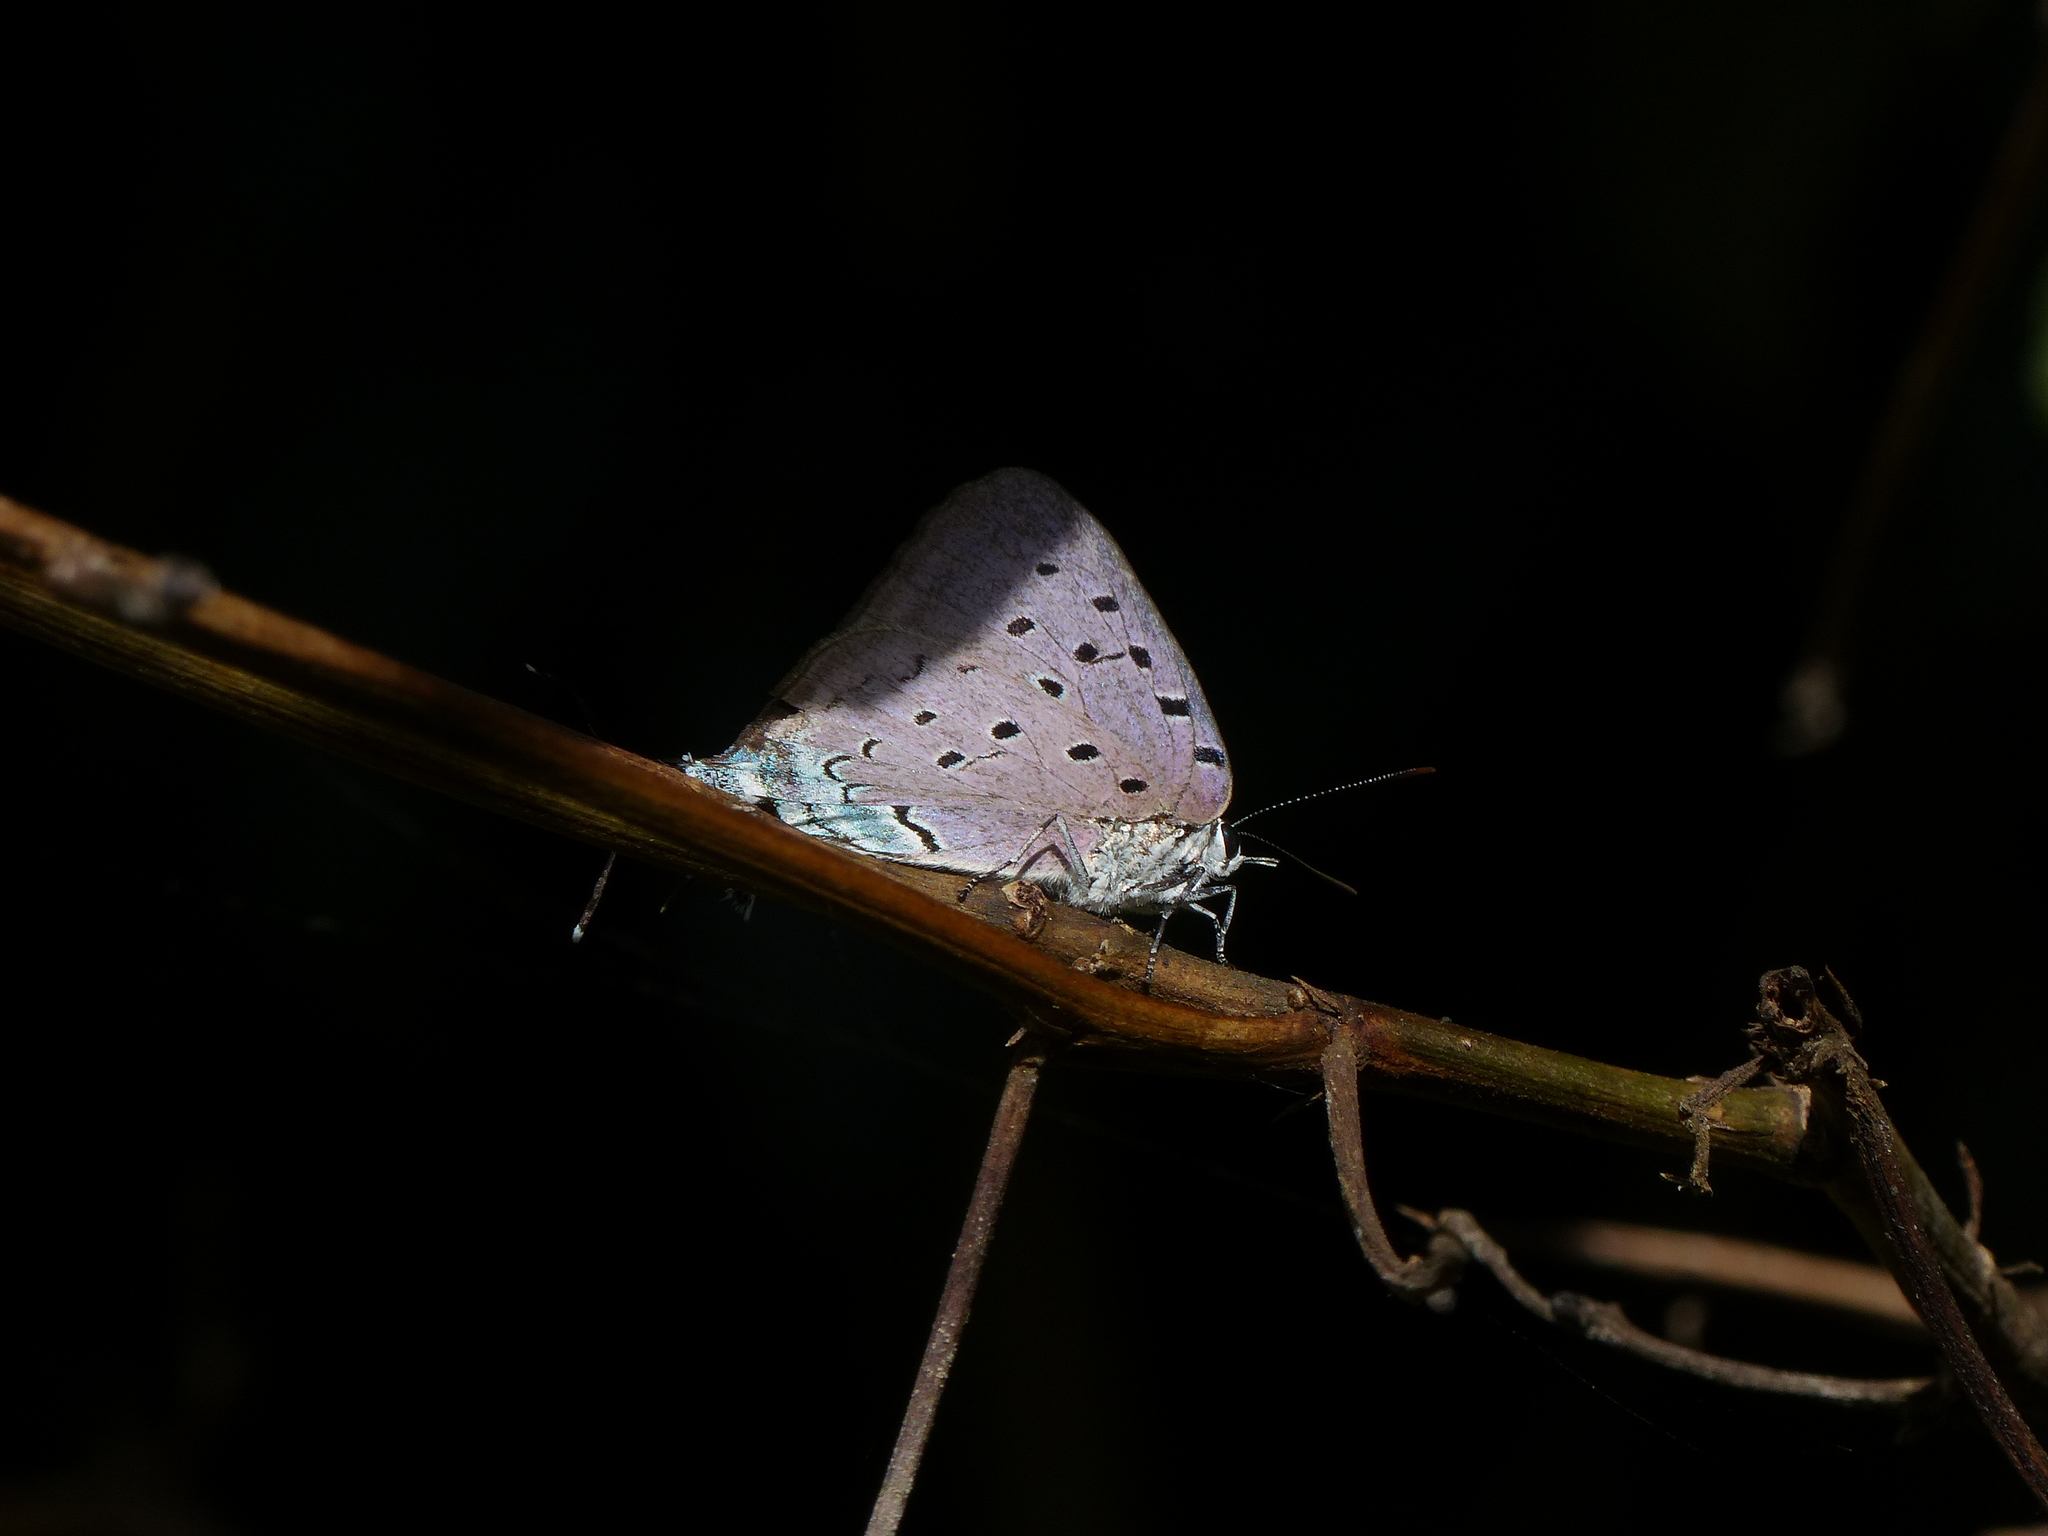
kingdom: Animalia
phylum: Arthropoda
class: Insecta
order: Lepidoptera
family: Lycaenidae
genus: Pseudolycaena
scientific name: Pseudolycaena marsyas
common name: Marsyas hairstreak
